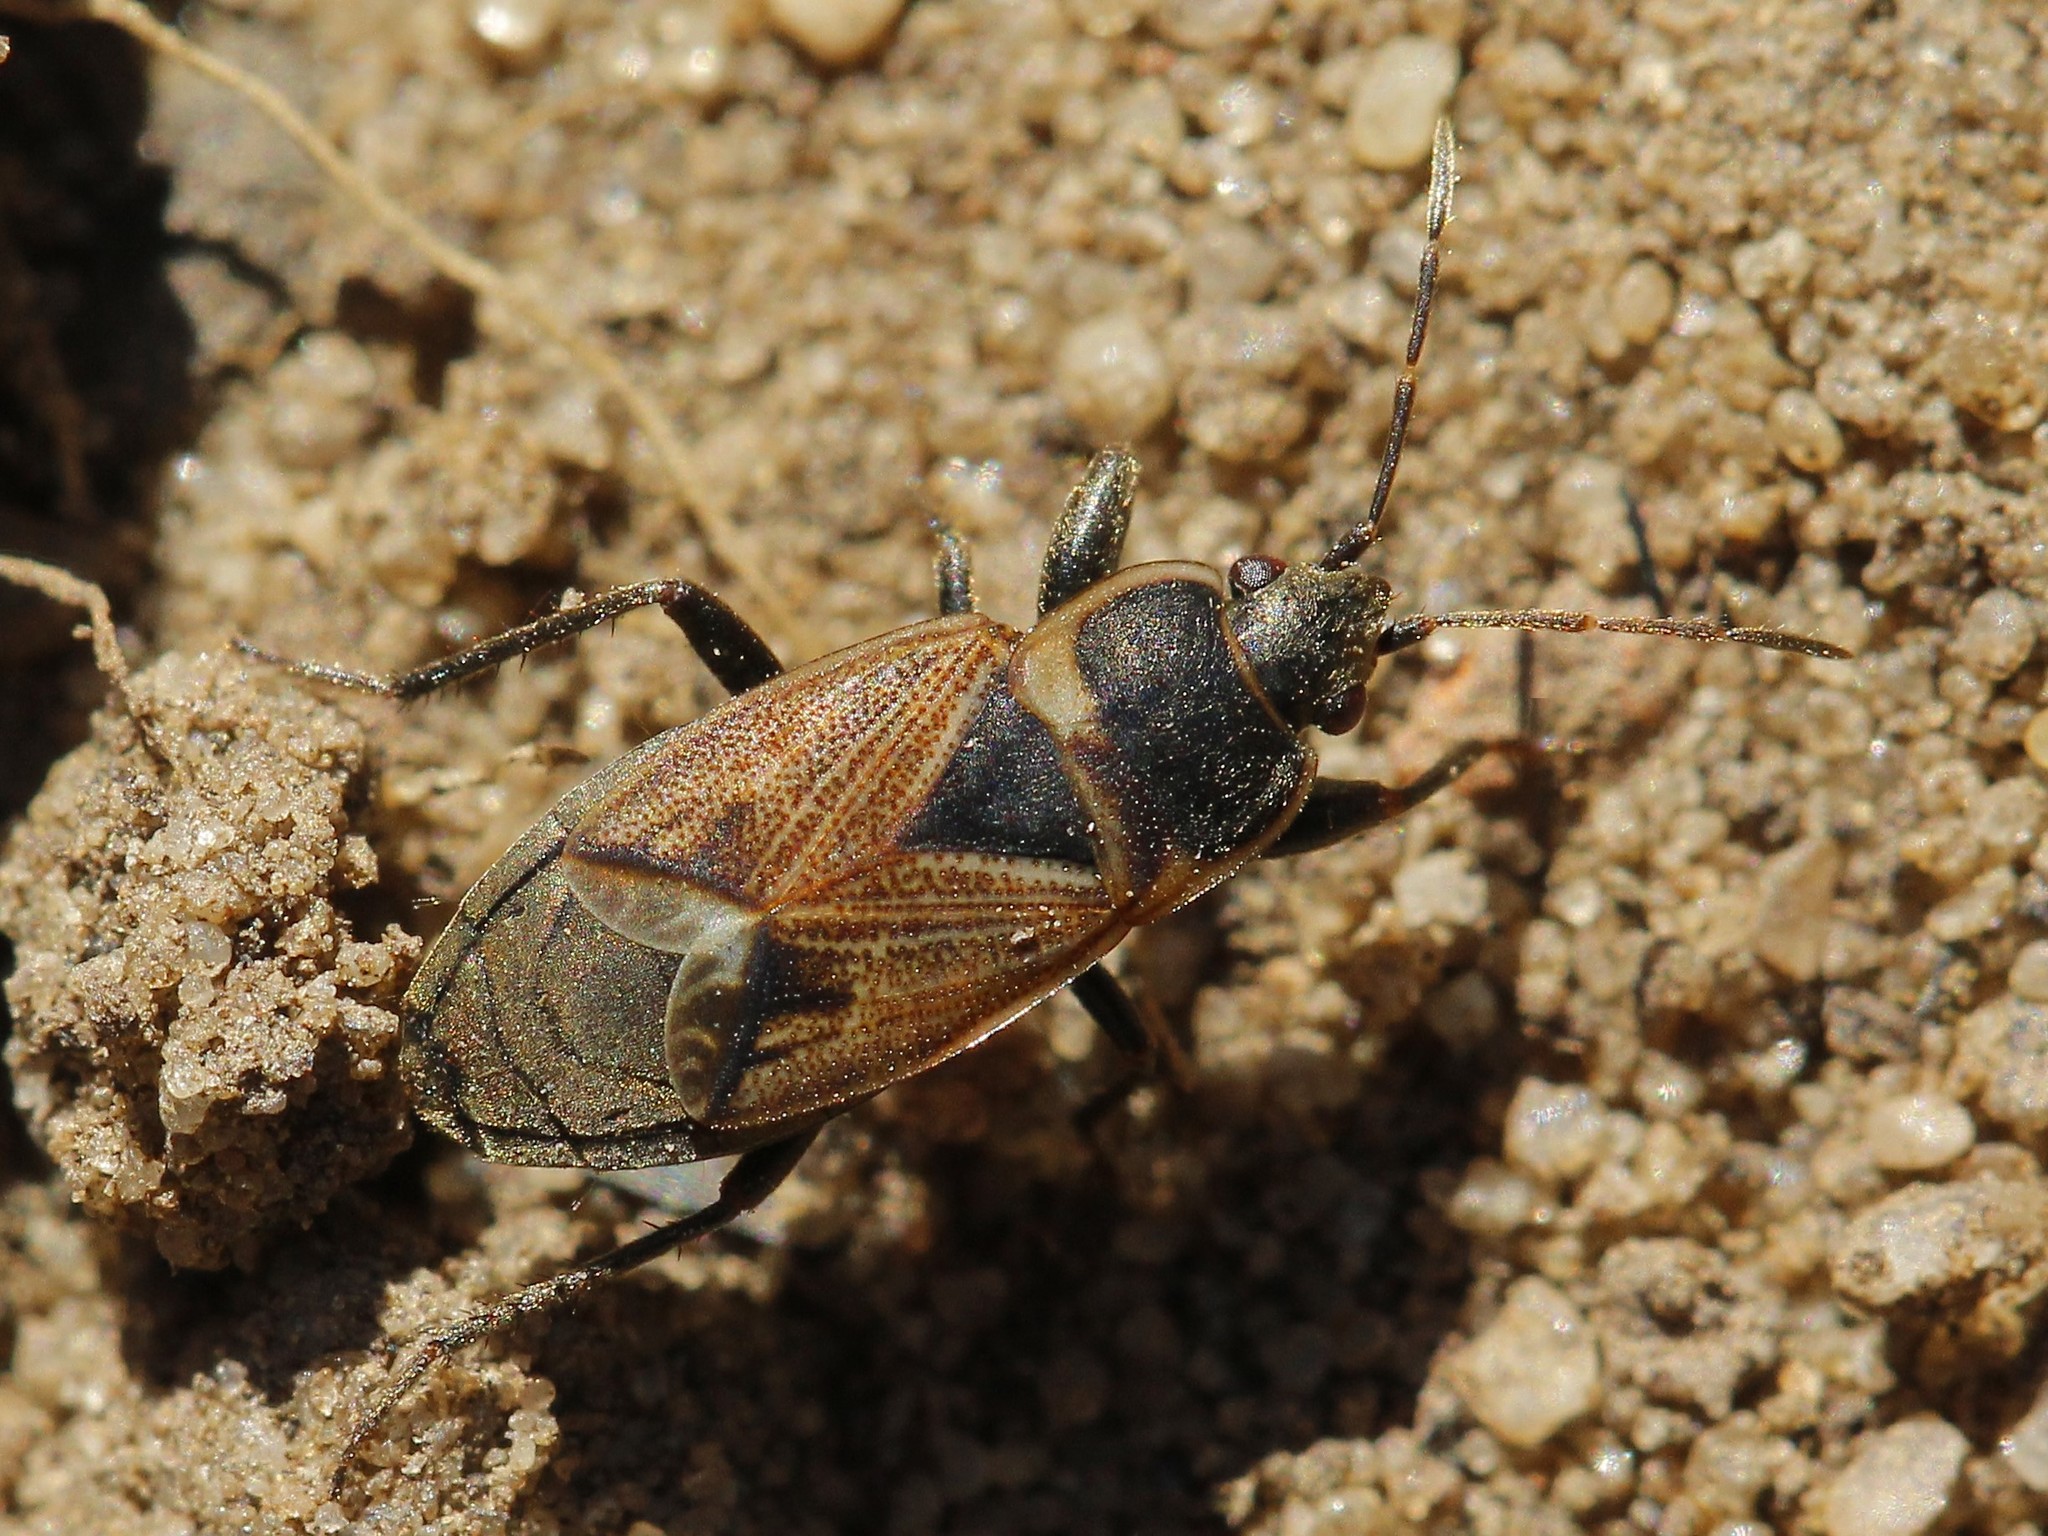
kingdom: Animalia
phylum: Arthropoda
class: Insecta
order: Hemiptera
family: Rhyparochromidae
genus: Bleteogonus
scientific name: Bleteogonus beckeri
